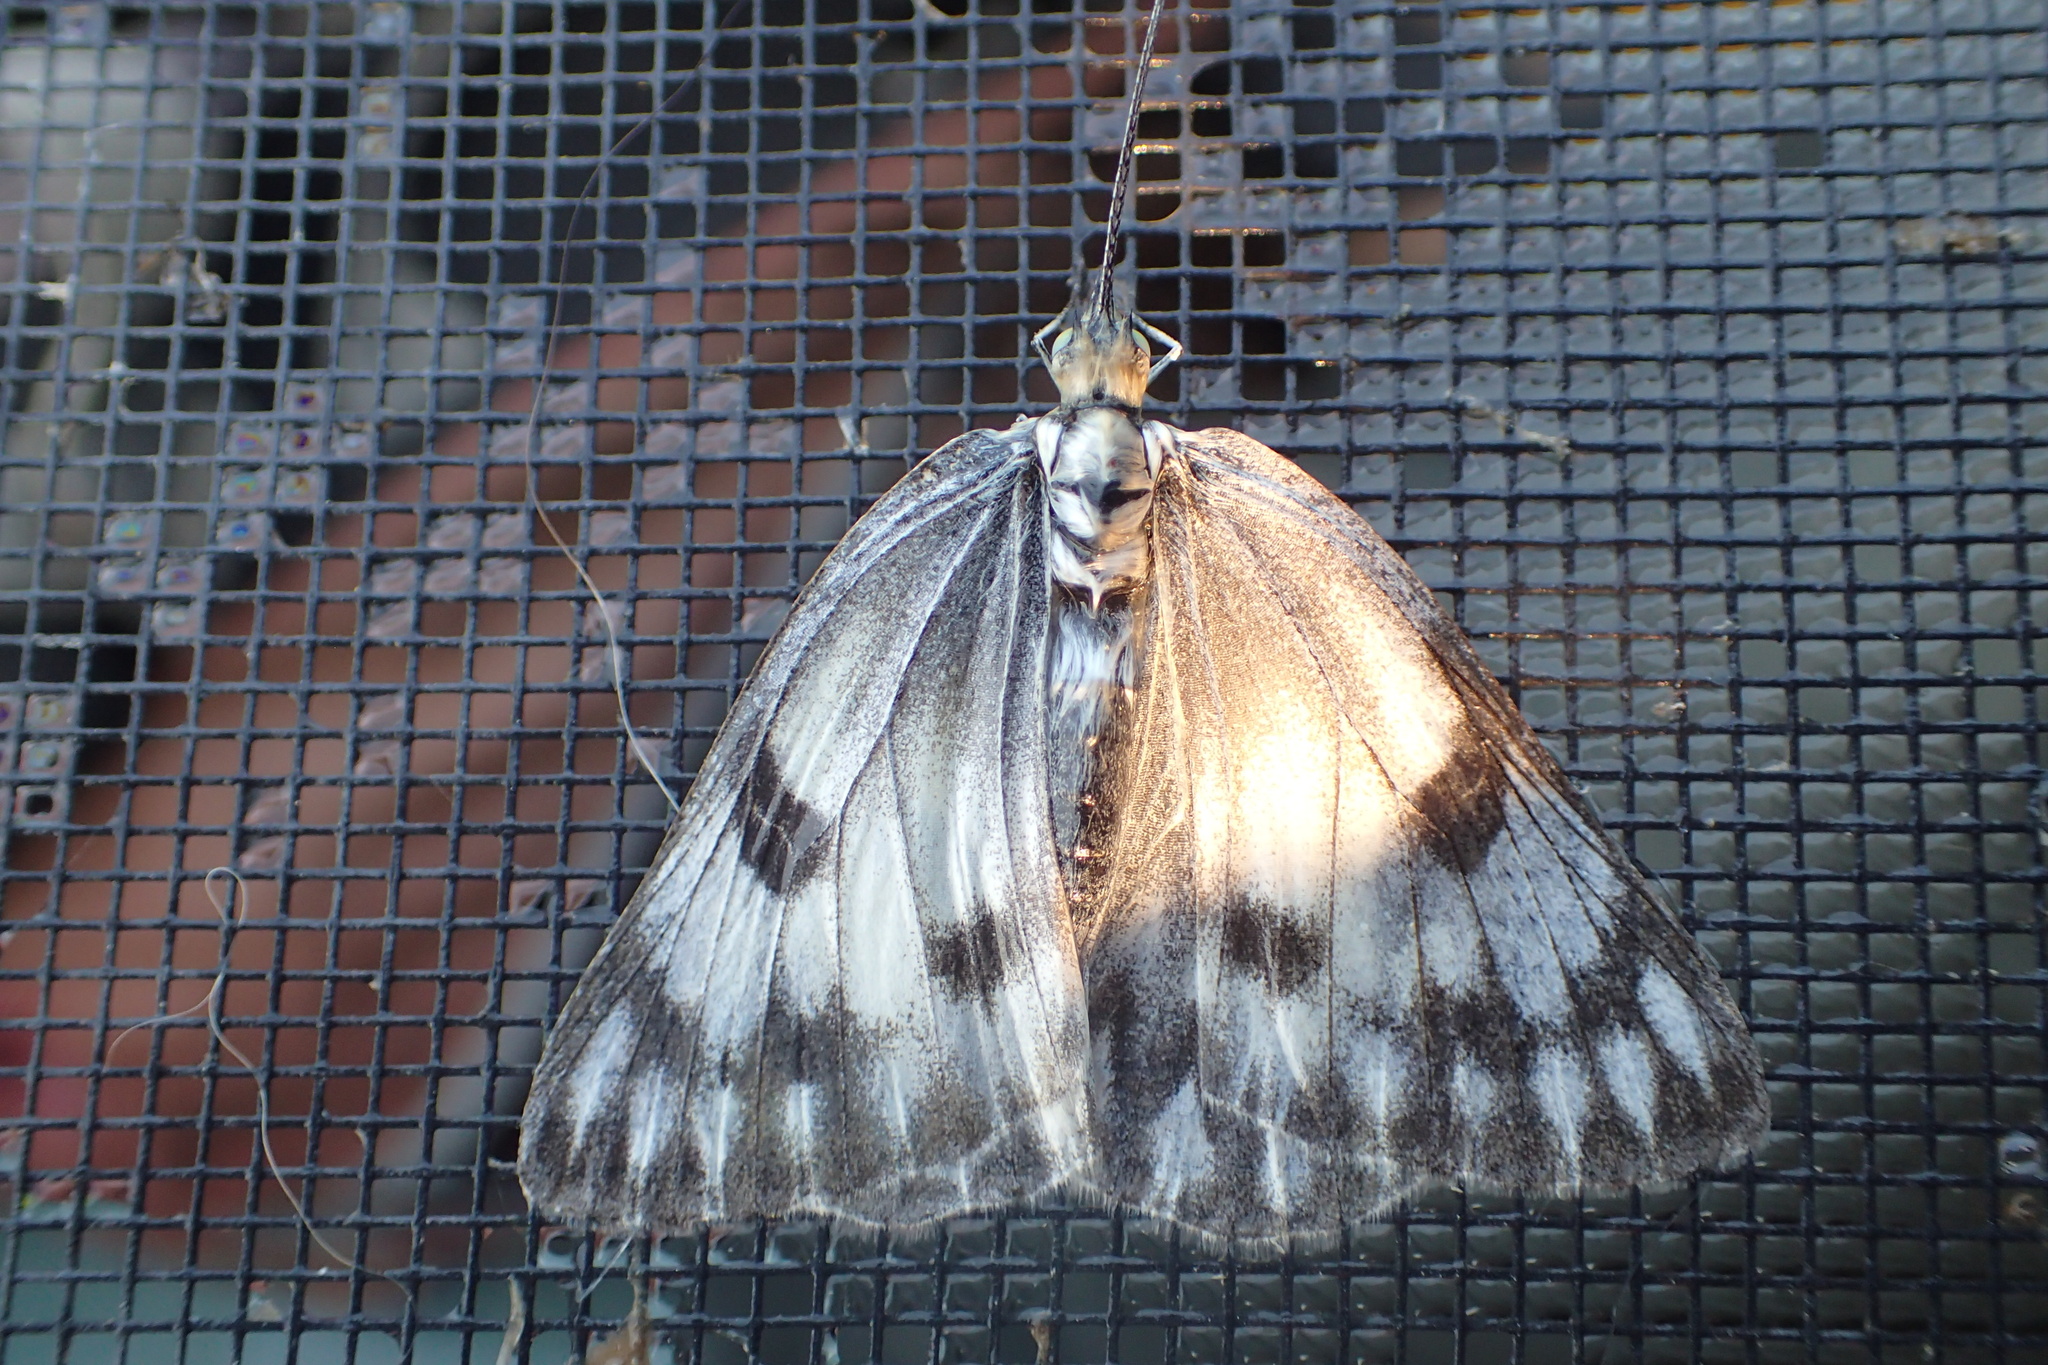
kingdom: Animalia
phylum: Arthropoda
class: Insecta
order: Lepidoptera
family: Pieridae
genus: Pontia
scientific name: Pontia occidentalis
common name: Western white
